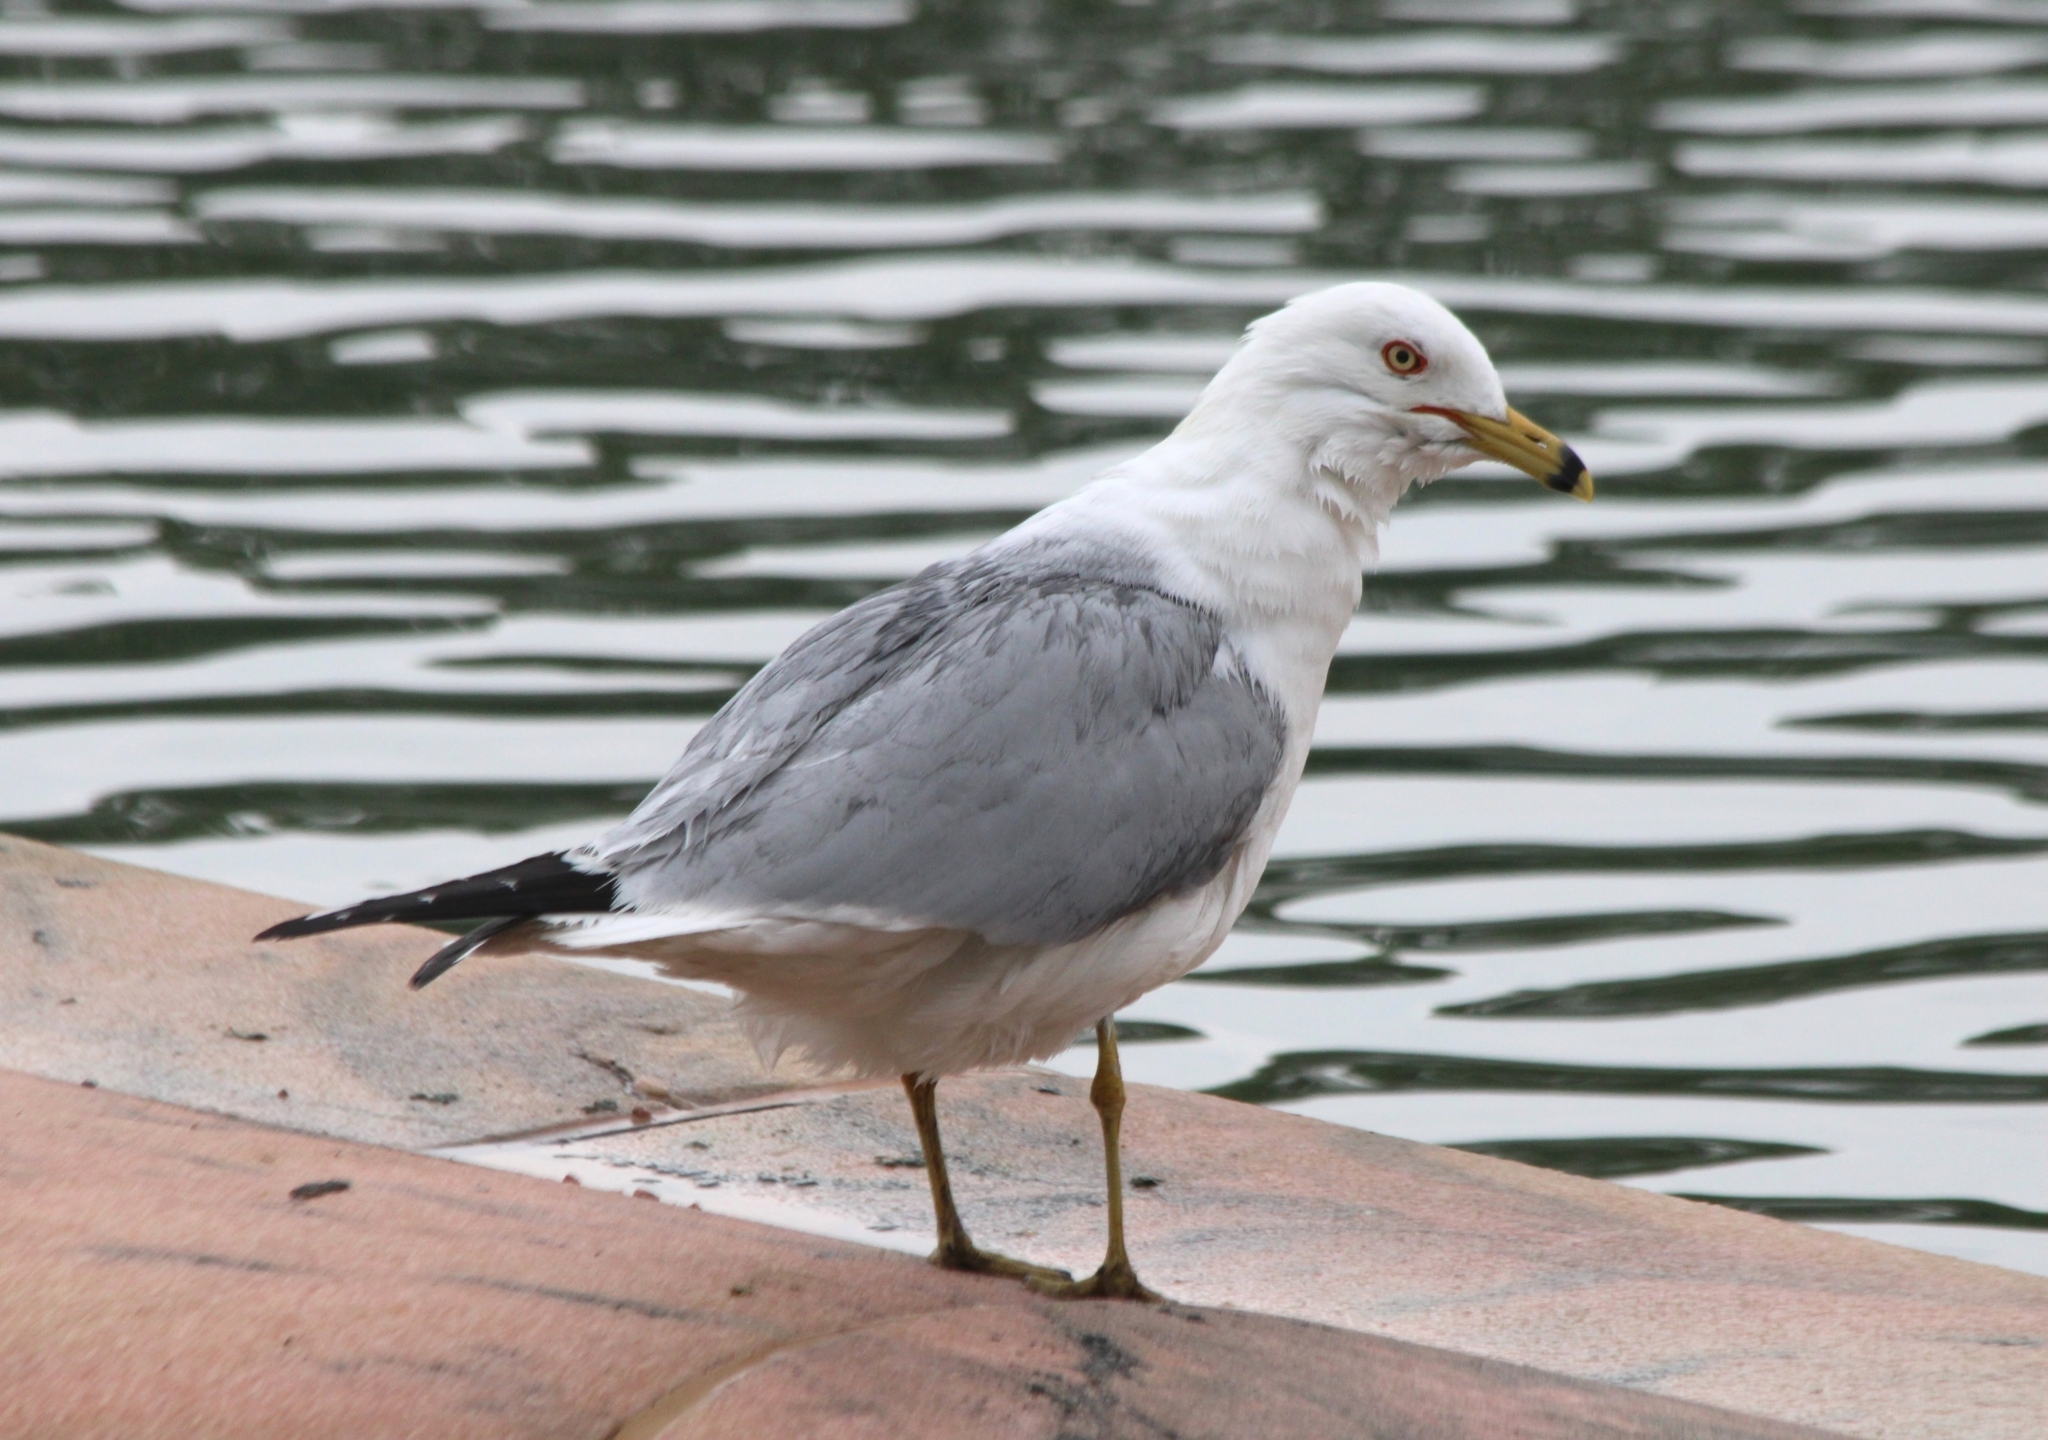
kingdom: Animalia
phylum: Chordata
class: Aves
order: Charadriiformes
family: Laridae
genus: Larus
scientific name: Larus delawarensis
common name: Ring-billed gull
